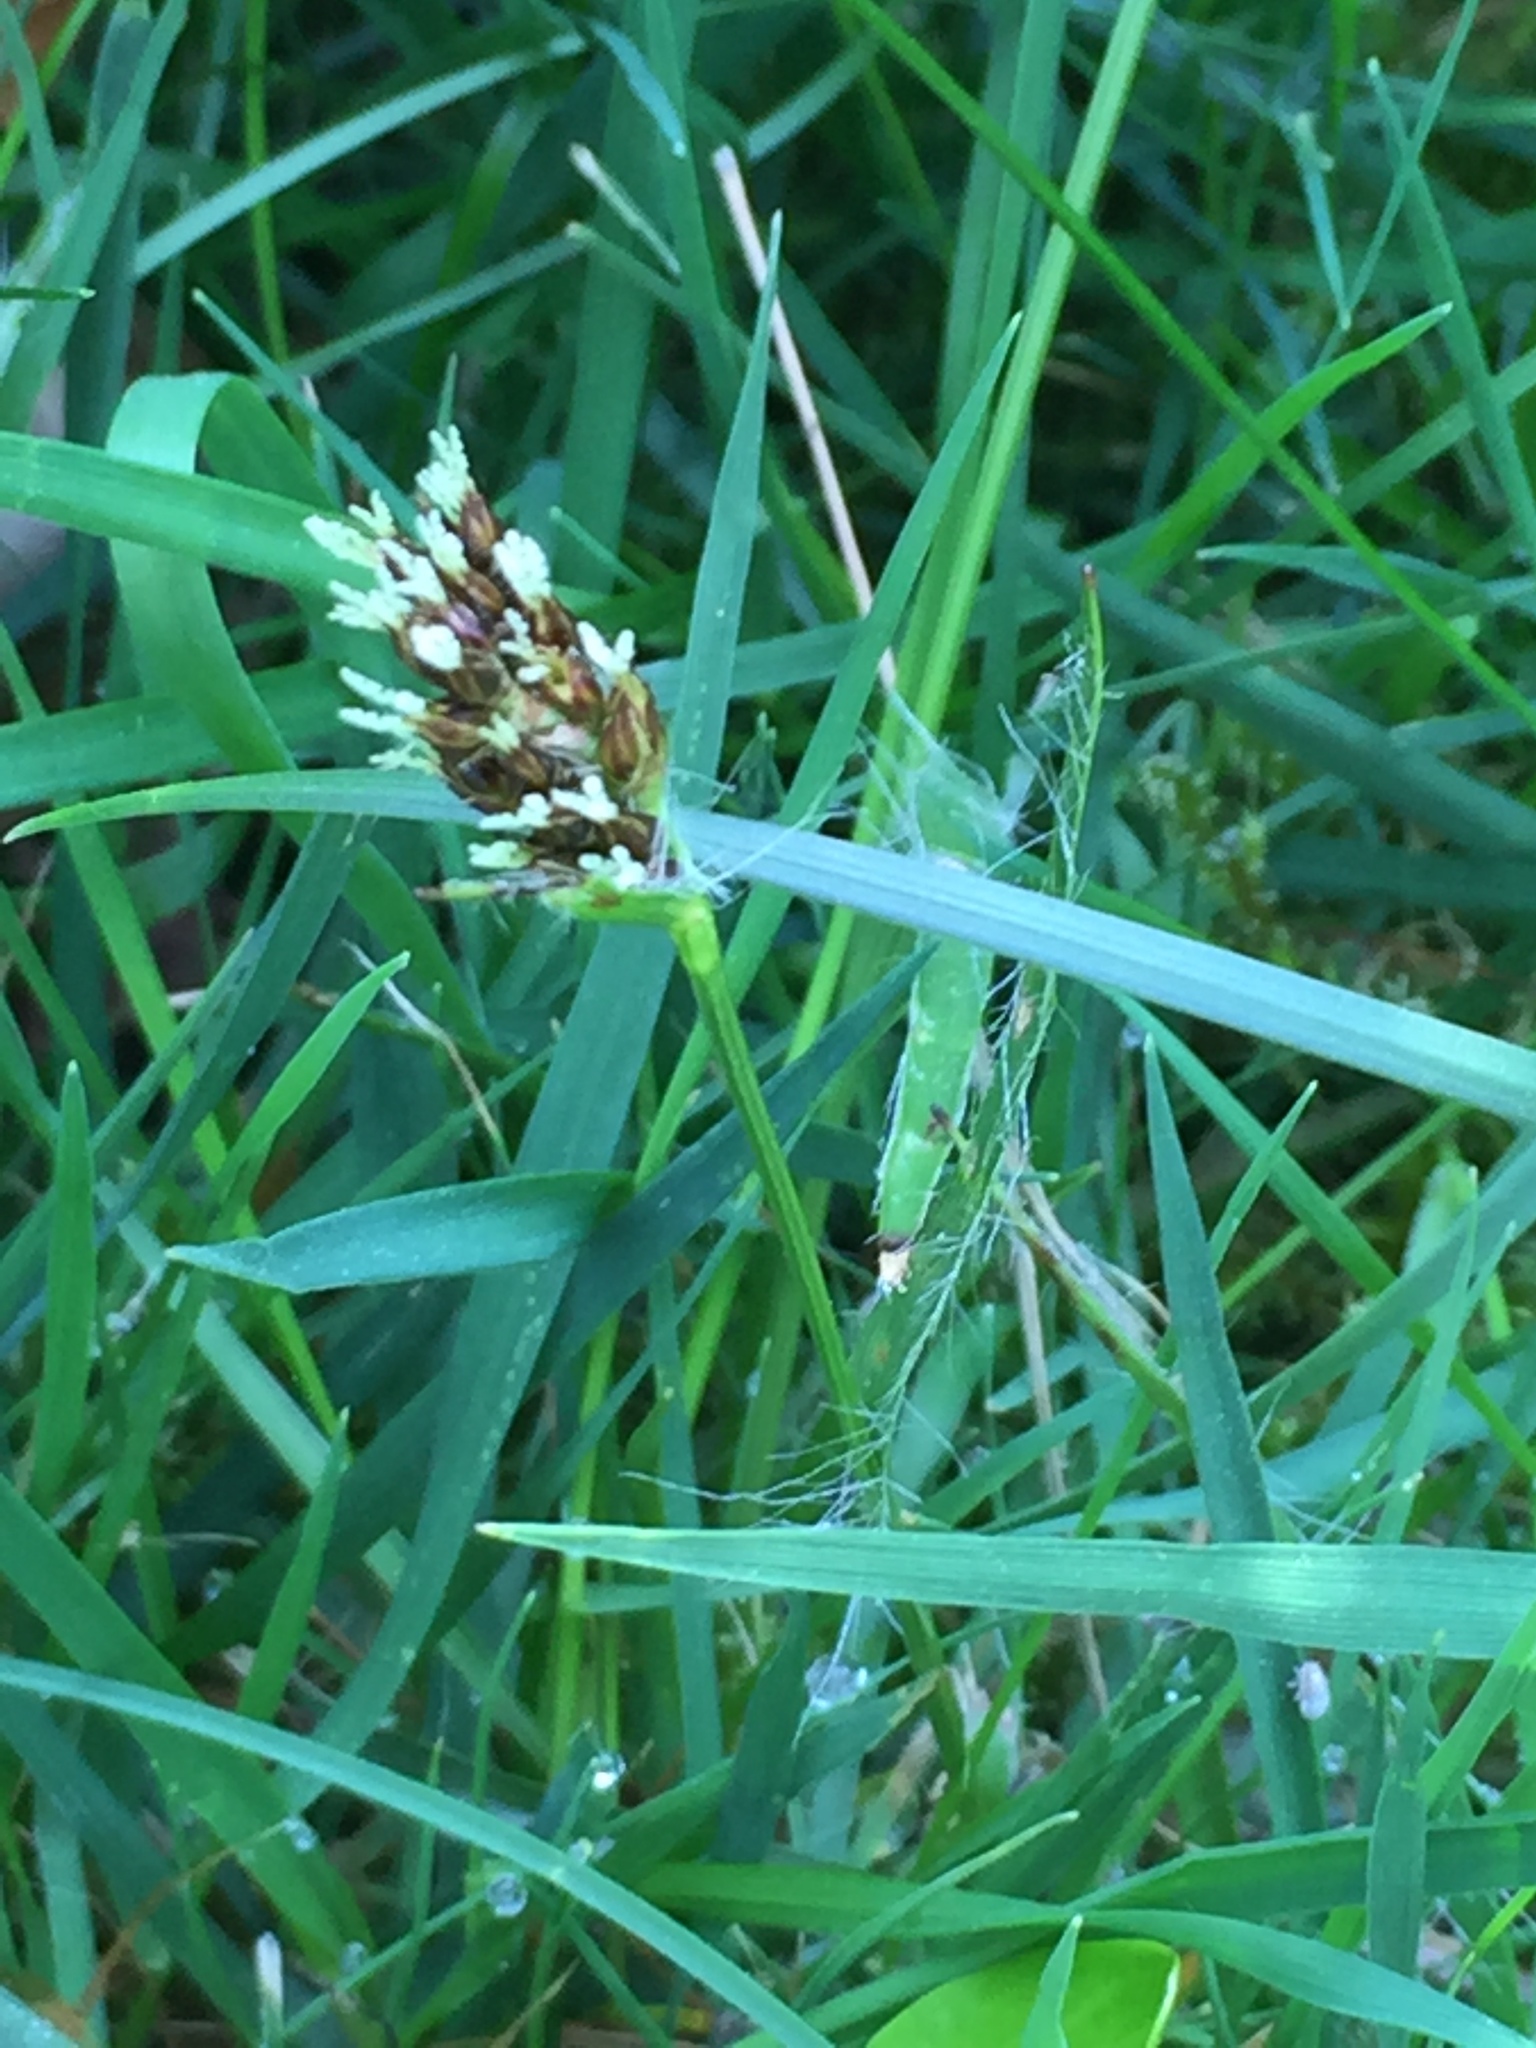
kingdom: Plantae
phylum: Tracheophyta
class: Liliopsida
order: Poales
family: Juncaceae
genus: Luzula
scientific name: Luzula campestris
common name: Field wood-rush
